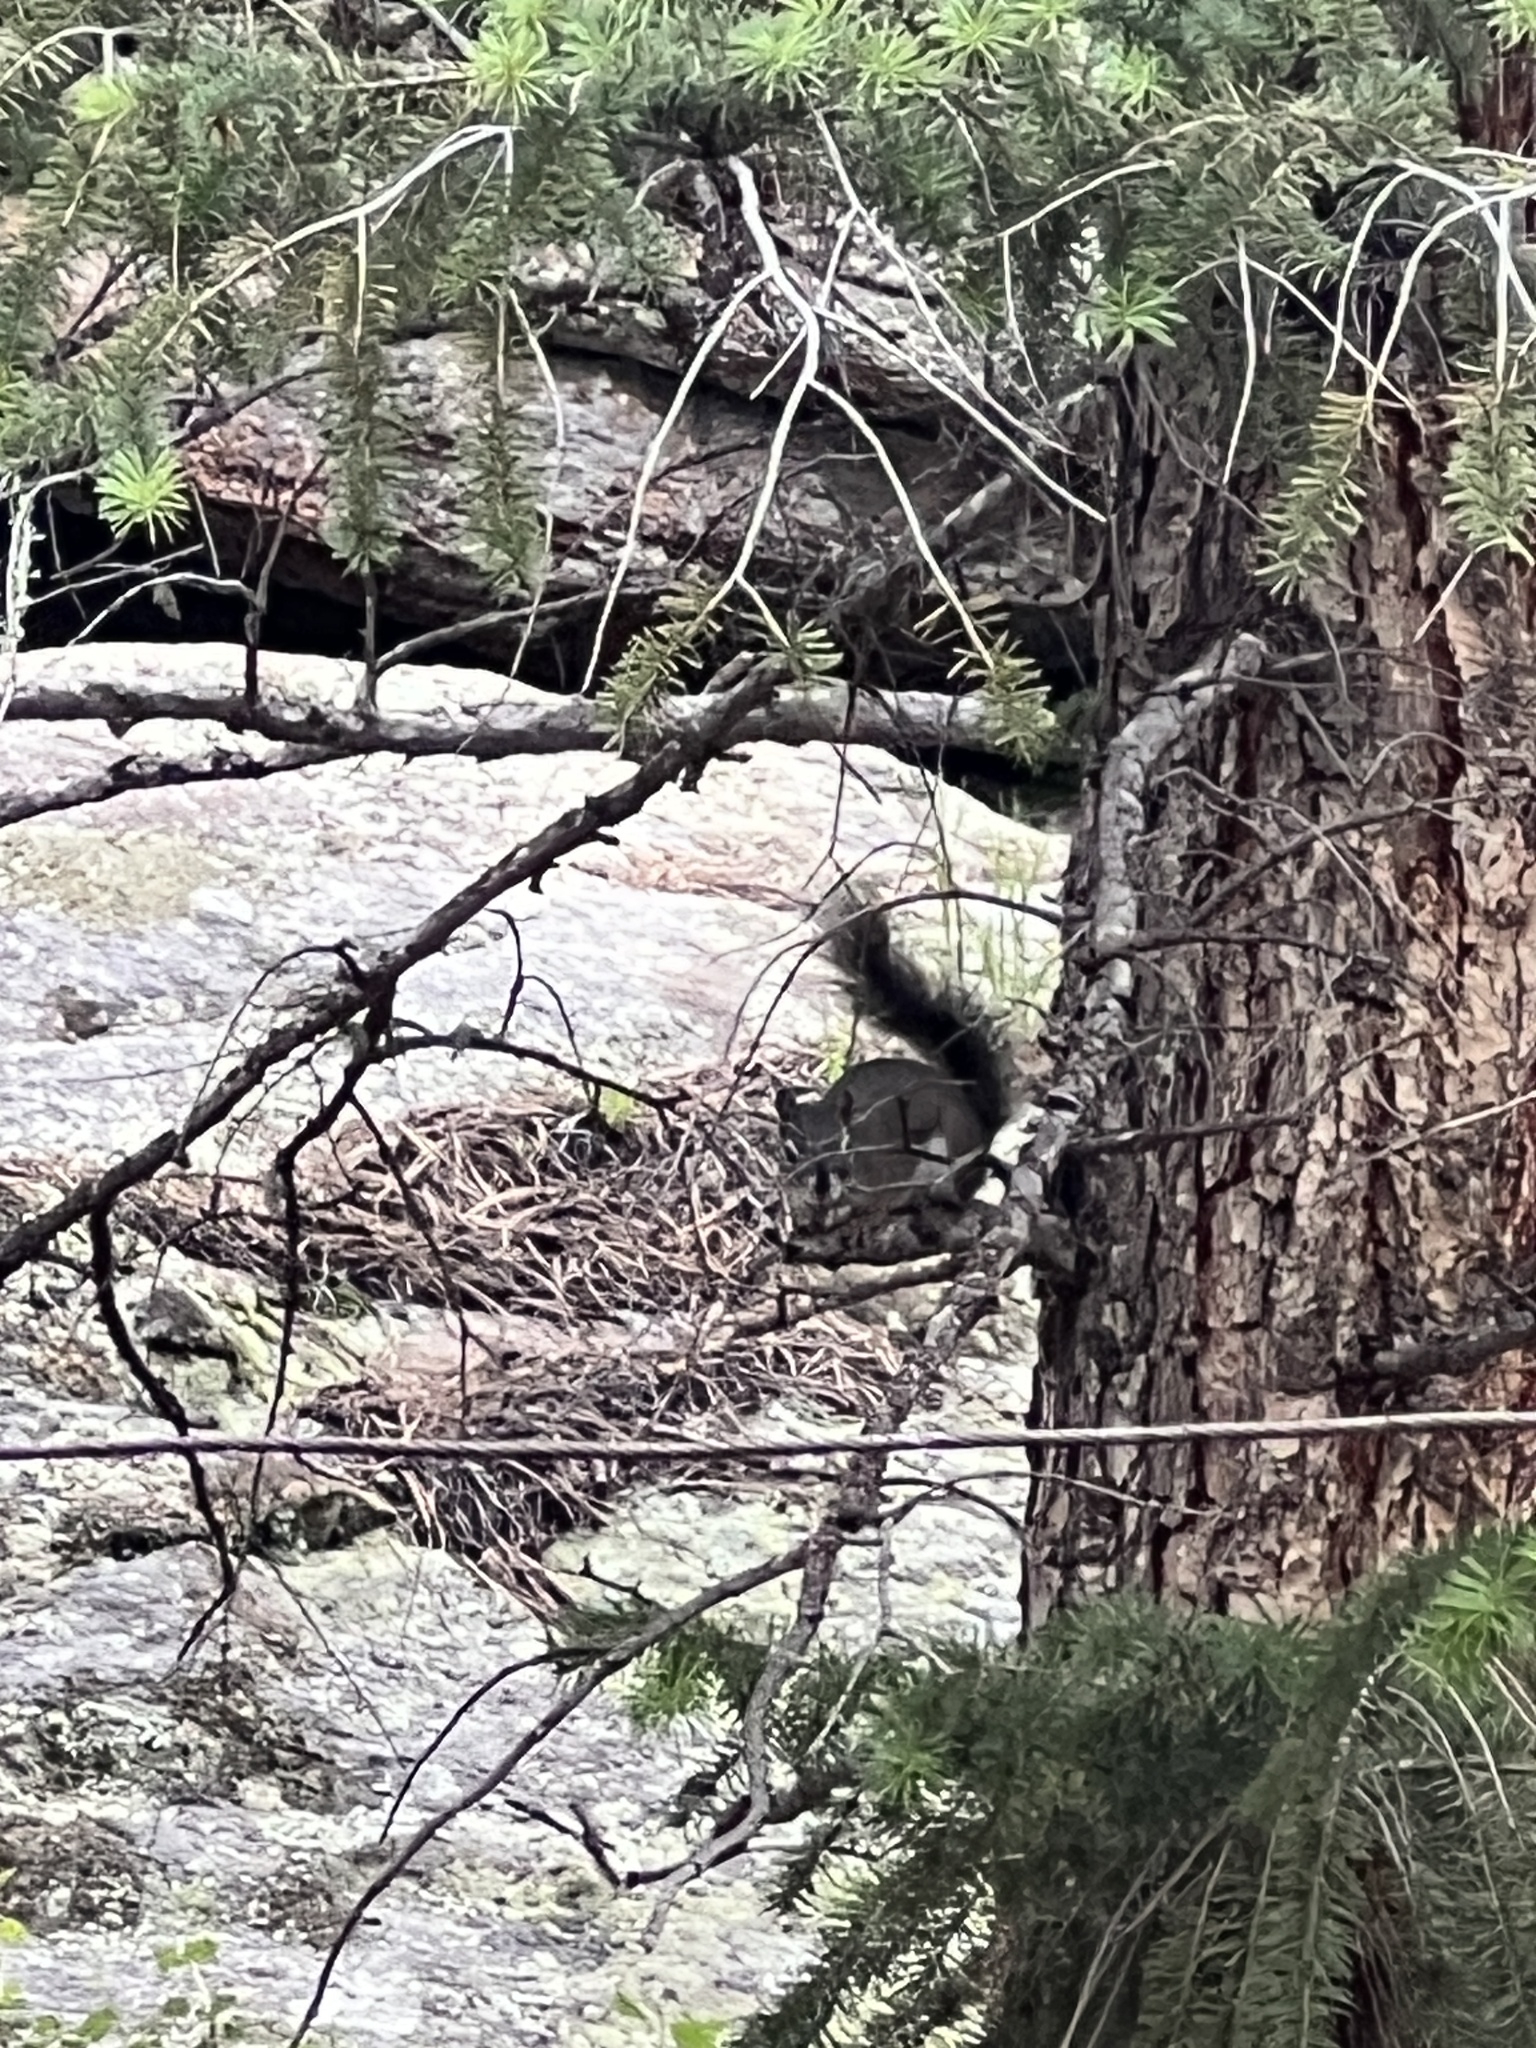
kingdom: Animalia
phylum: Chordata
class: Mammalia
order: Rodentia
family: Sciuridae
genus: Tamiasciurus
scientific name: Tamiasciurus hudsonicus
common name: Red squirrel
